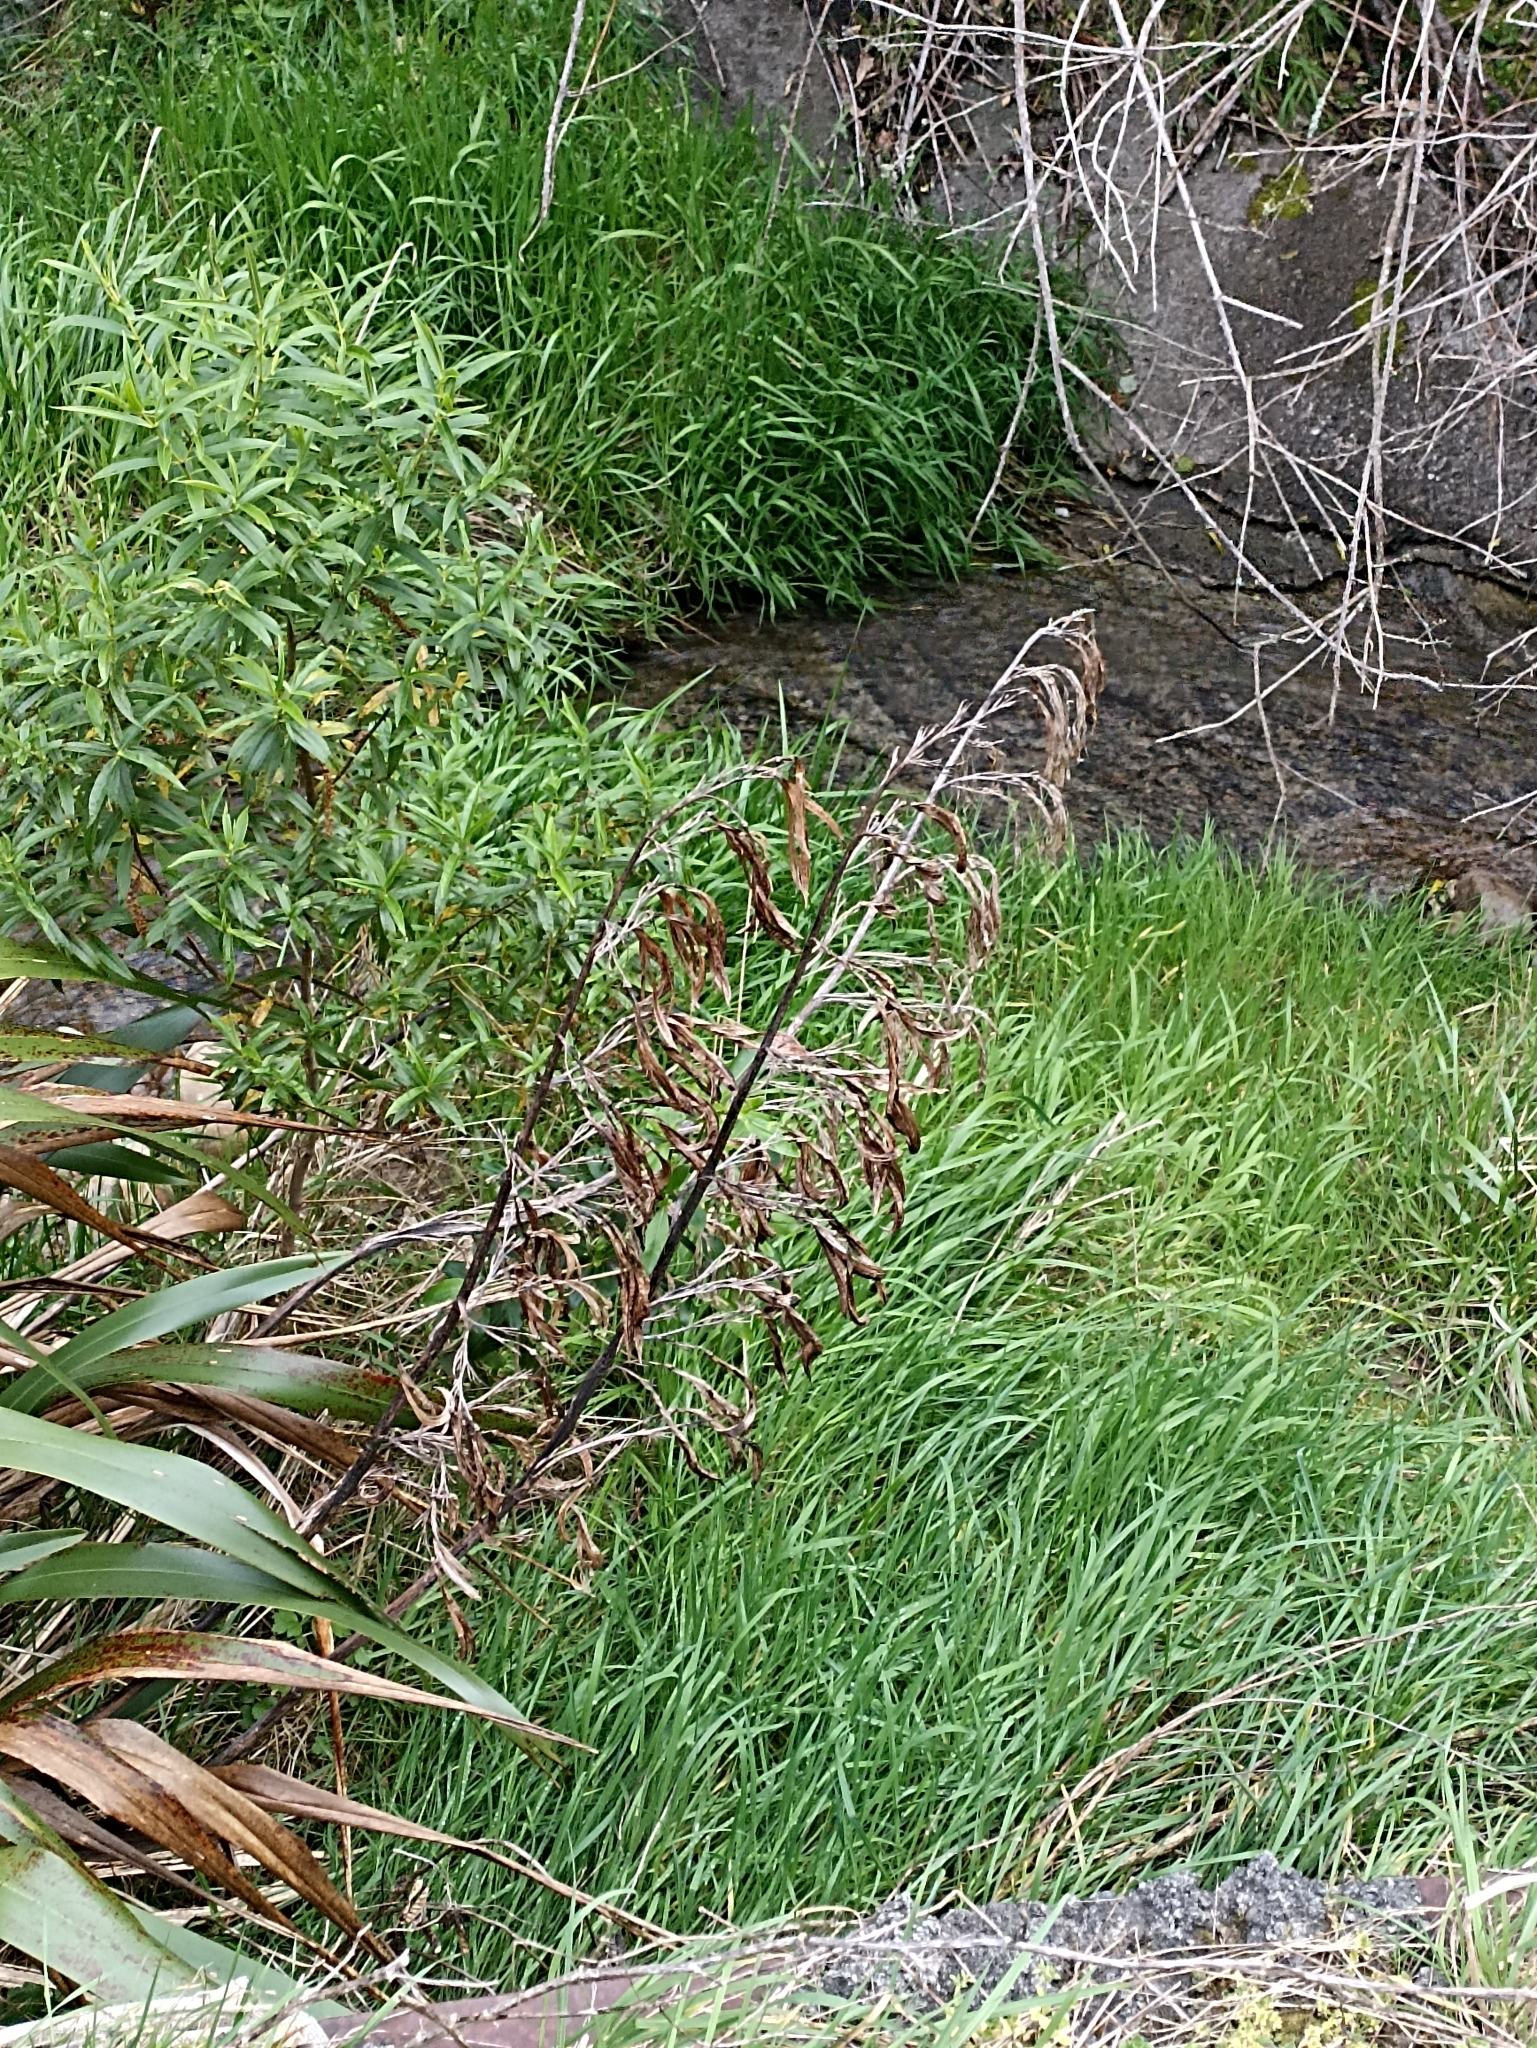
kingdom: Plantae
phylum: Tracheophyta
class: Liliopsida
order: Asparagales
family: Asphodelaceae
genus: Phormium
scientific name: Phormium colensoi
